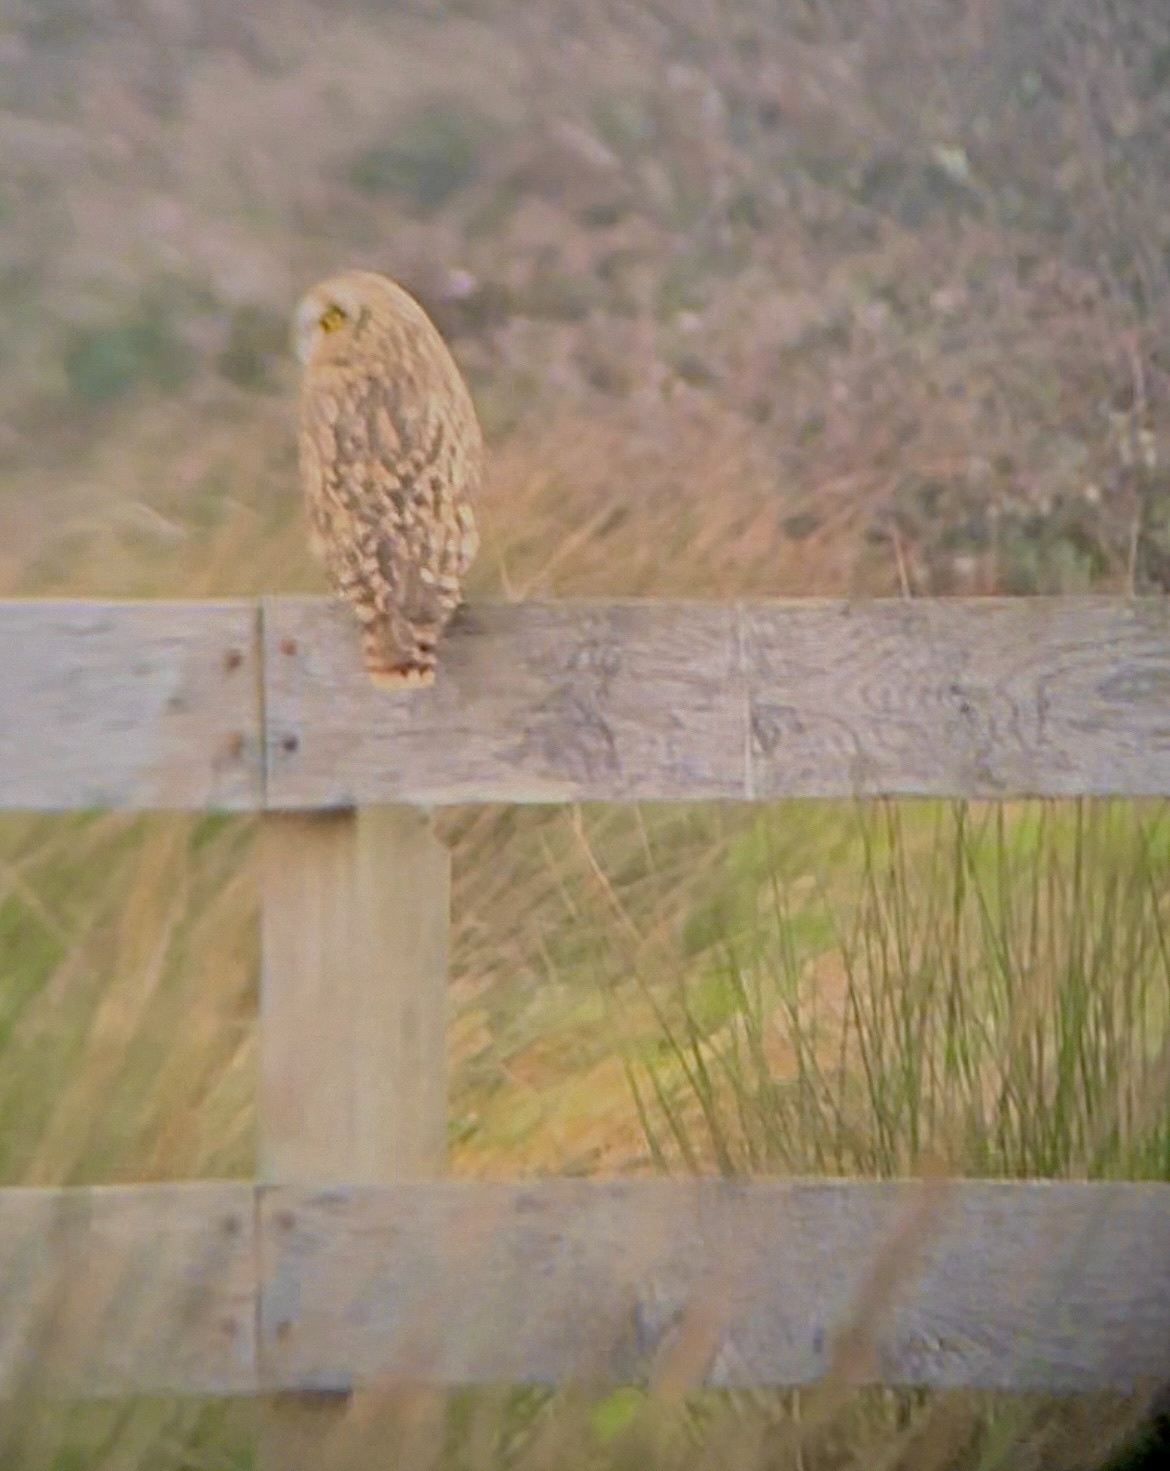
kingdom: Animalia
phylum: Chordata
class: Aves
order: Strigiformes
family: Strigidae
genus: Asio
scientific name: Asio flammeus
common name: Short-eared owl
